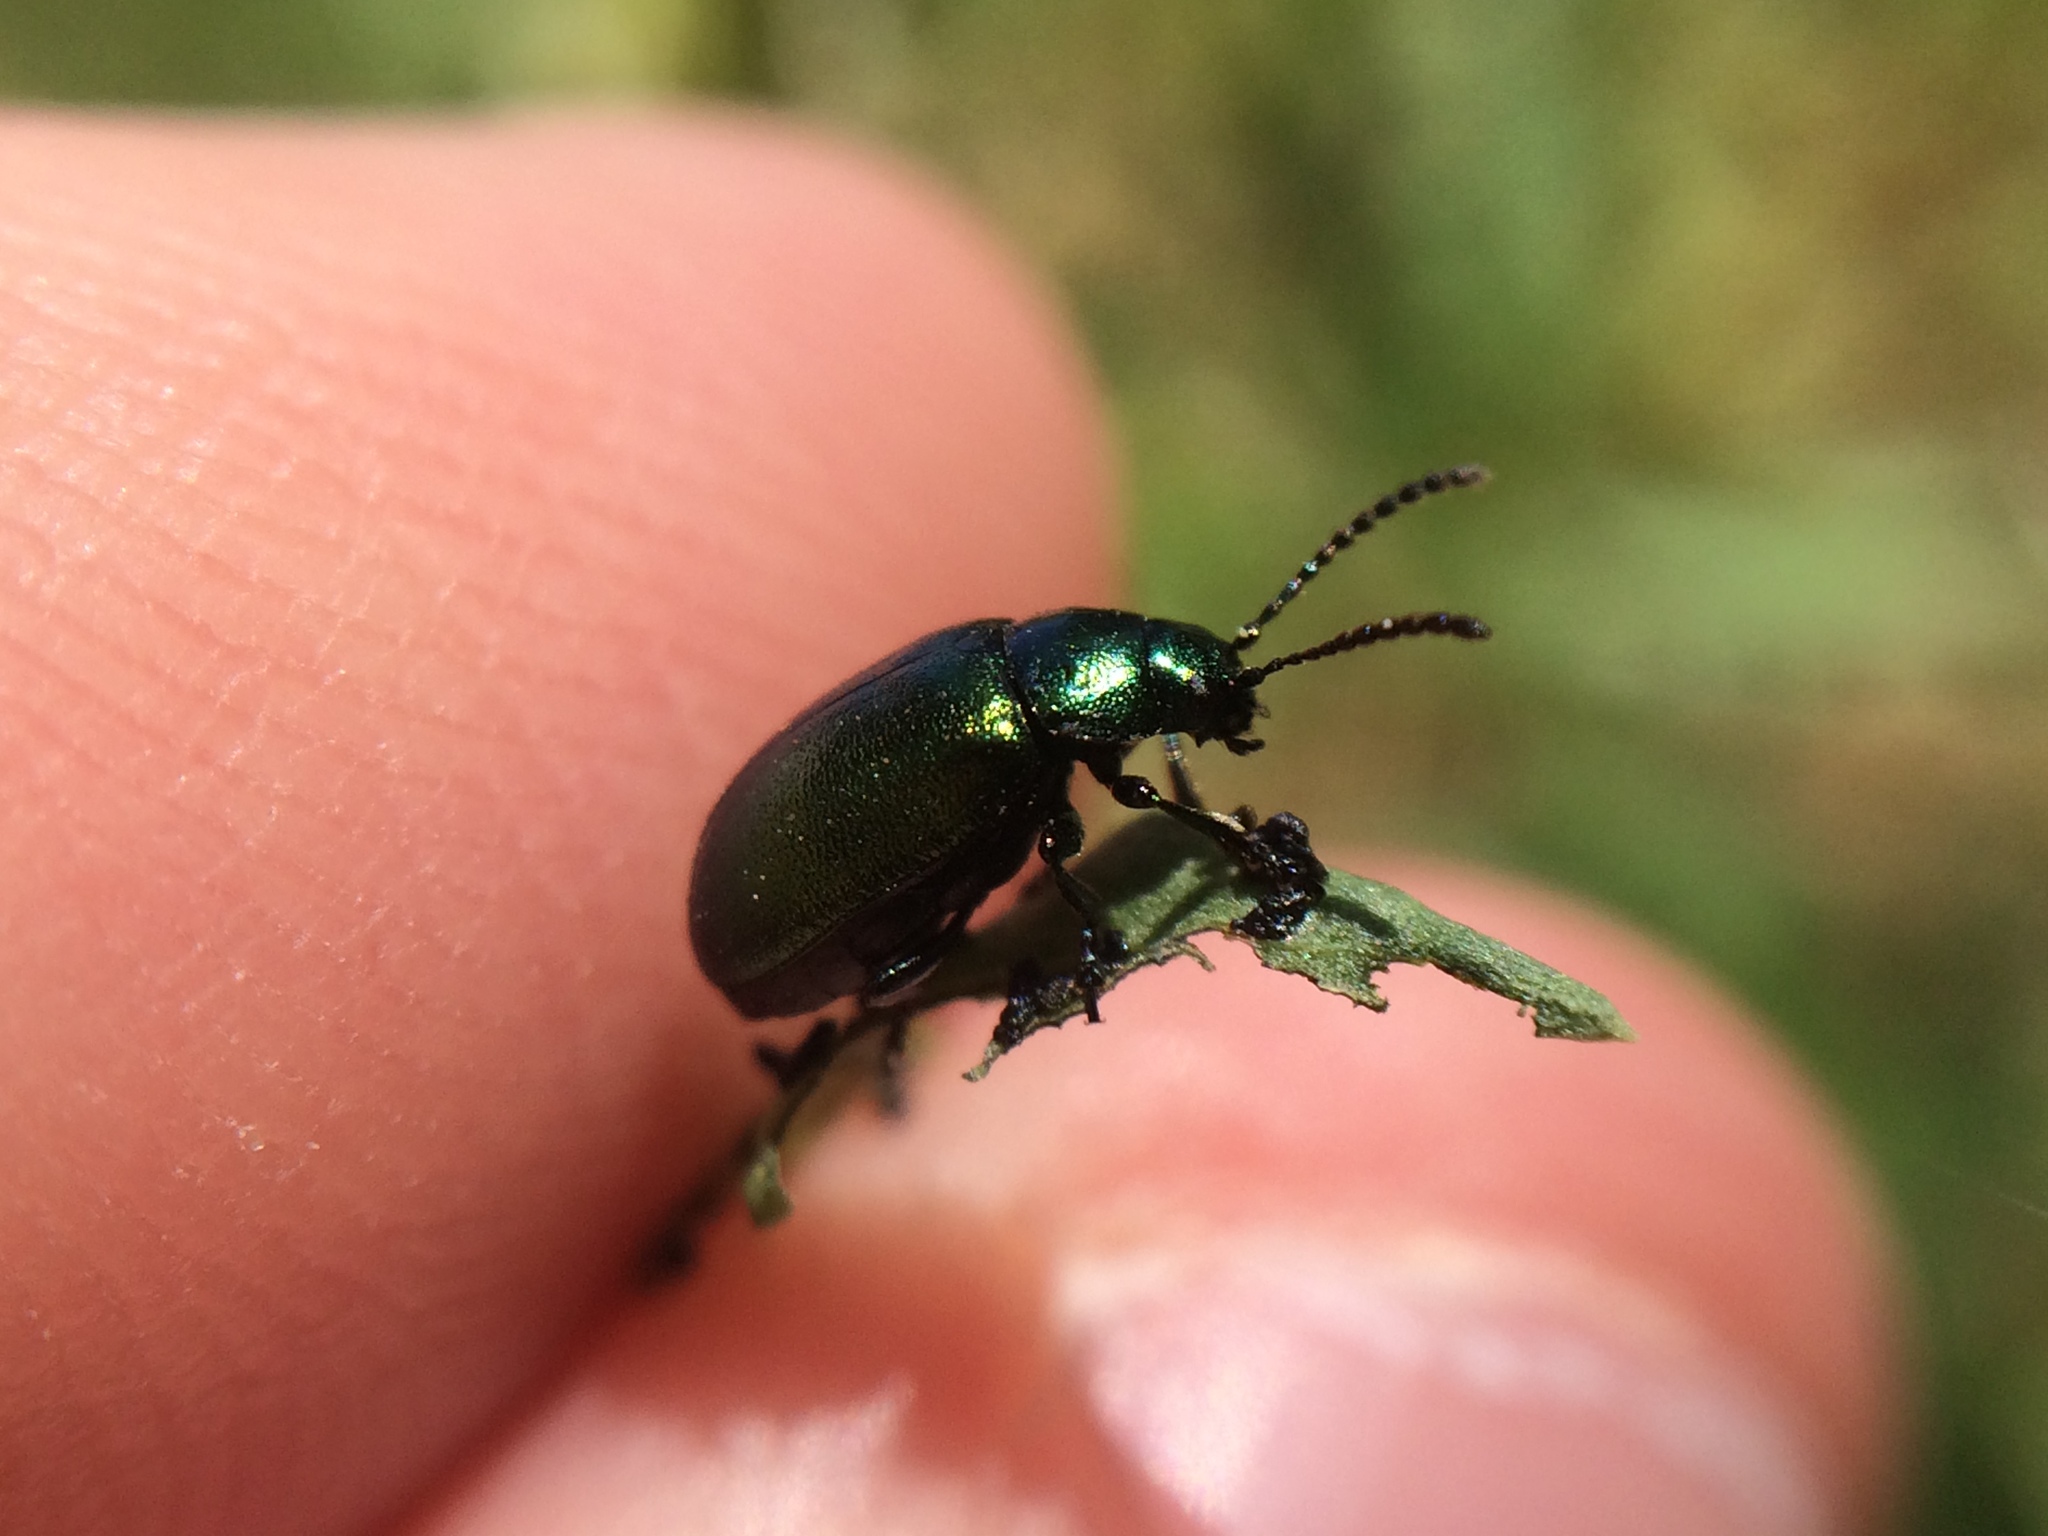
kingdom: Animalia
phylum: Arthropoda
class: Insecta
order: Coleoptera
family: Chrysomelidae
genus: Gastrophysa
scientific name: Gastrophysa cyanea
